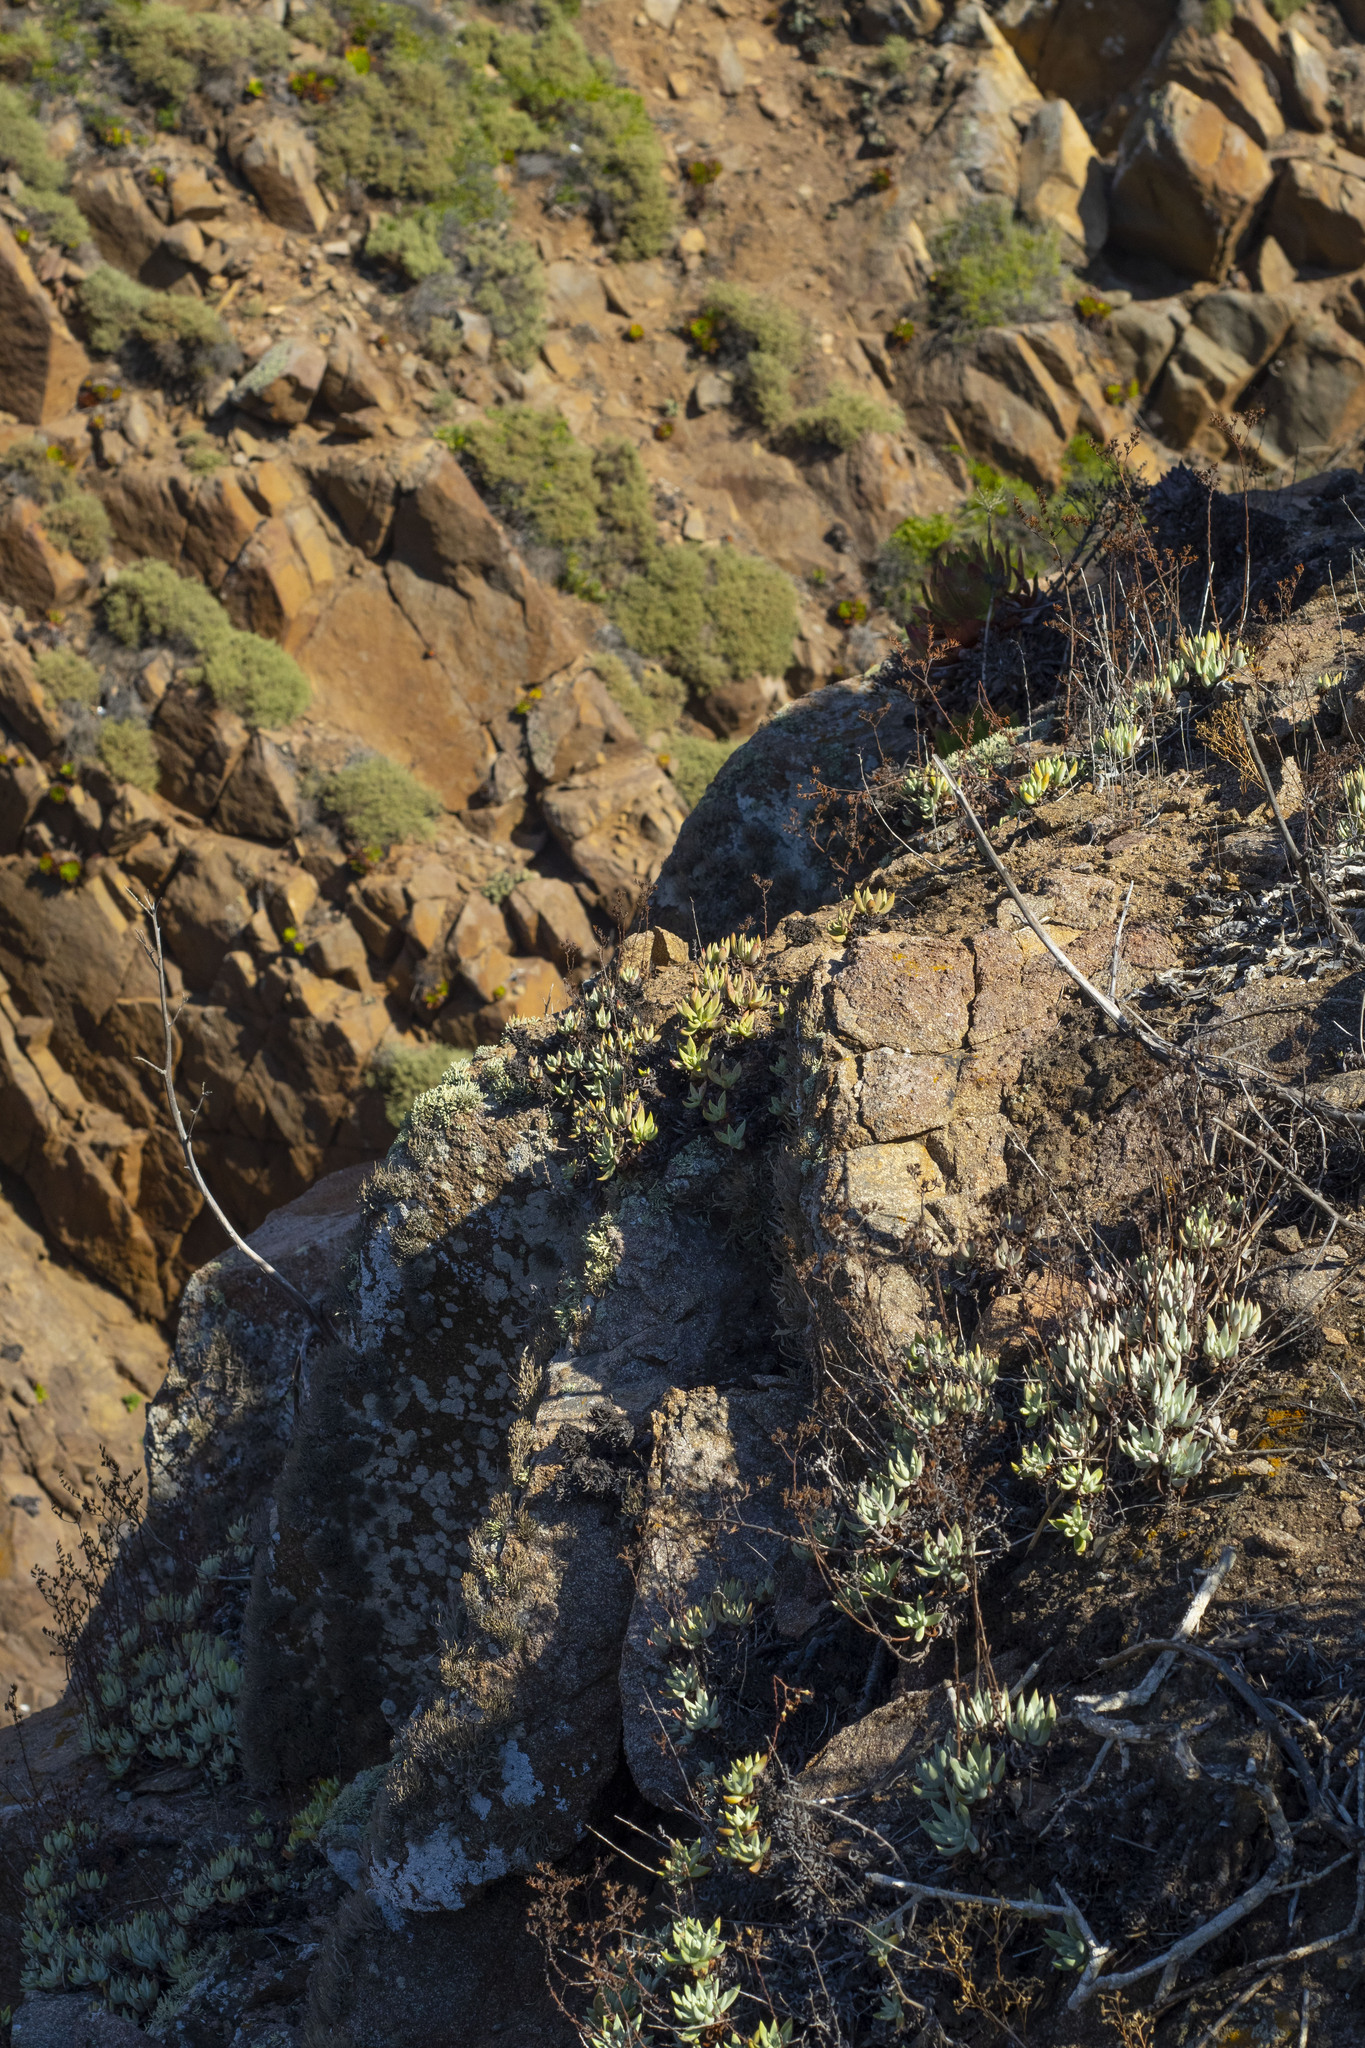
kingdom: Plantae
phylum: Tracheophyta
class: Magnoliopsida
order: Saxifragales
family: Crassulaceae
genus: Dudleya
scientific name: Dudleya campanulata
